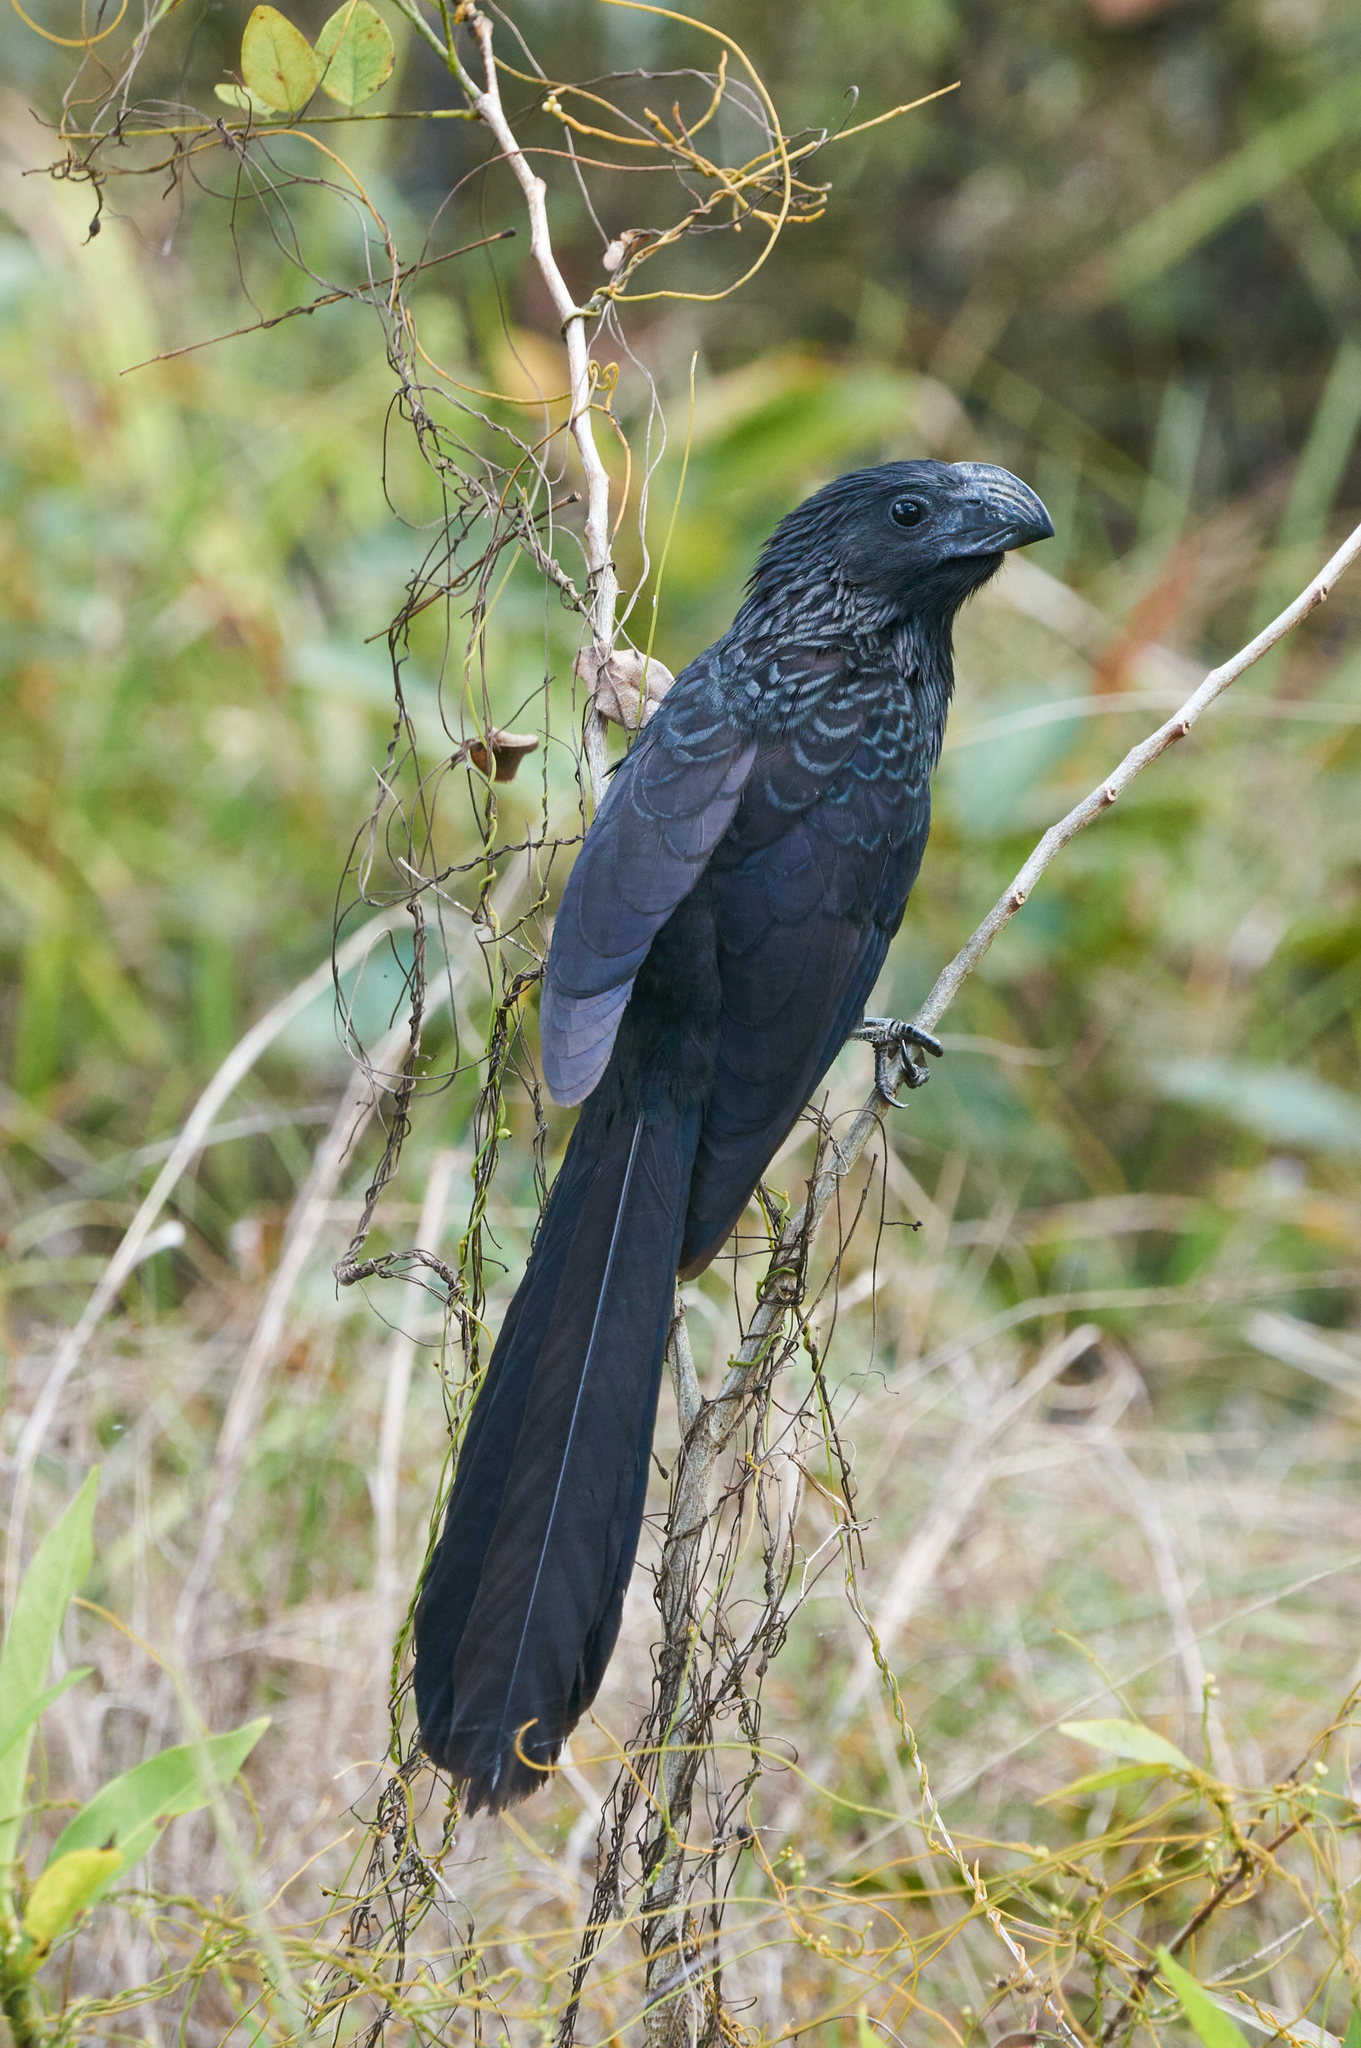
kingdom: Animalia
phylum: Chordata
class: Aves
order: Cuculiformes
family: Cuculidae
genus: Crotophaga
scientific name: Crotophaga sulcirostris
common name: Groove-billed ani
